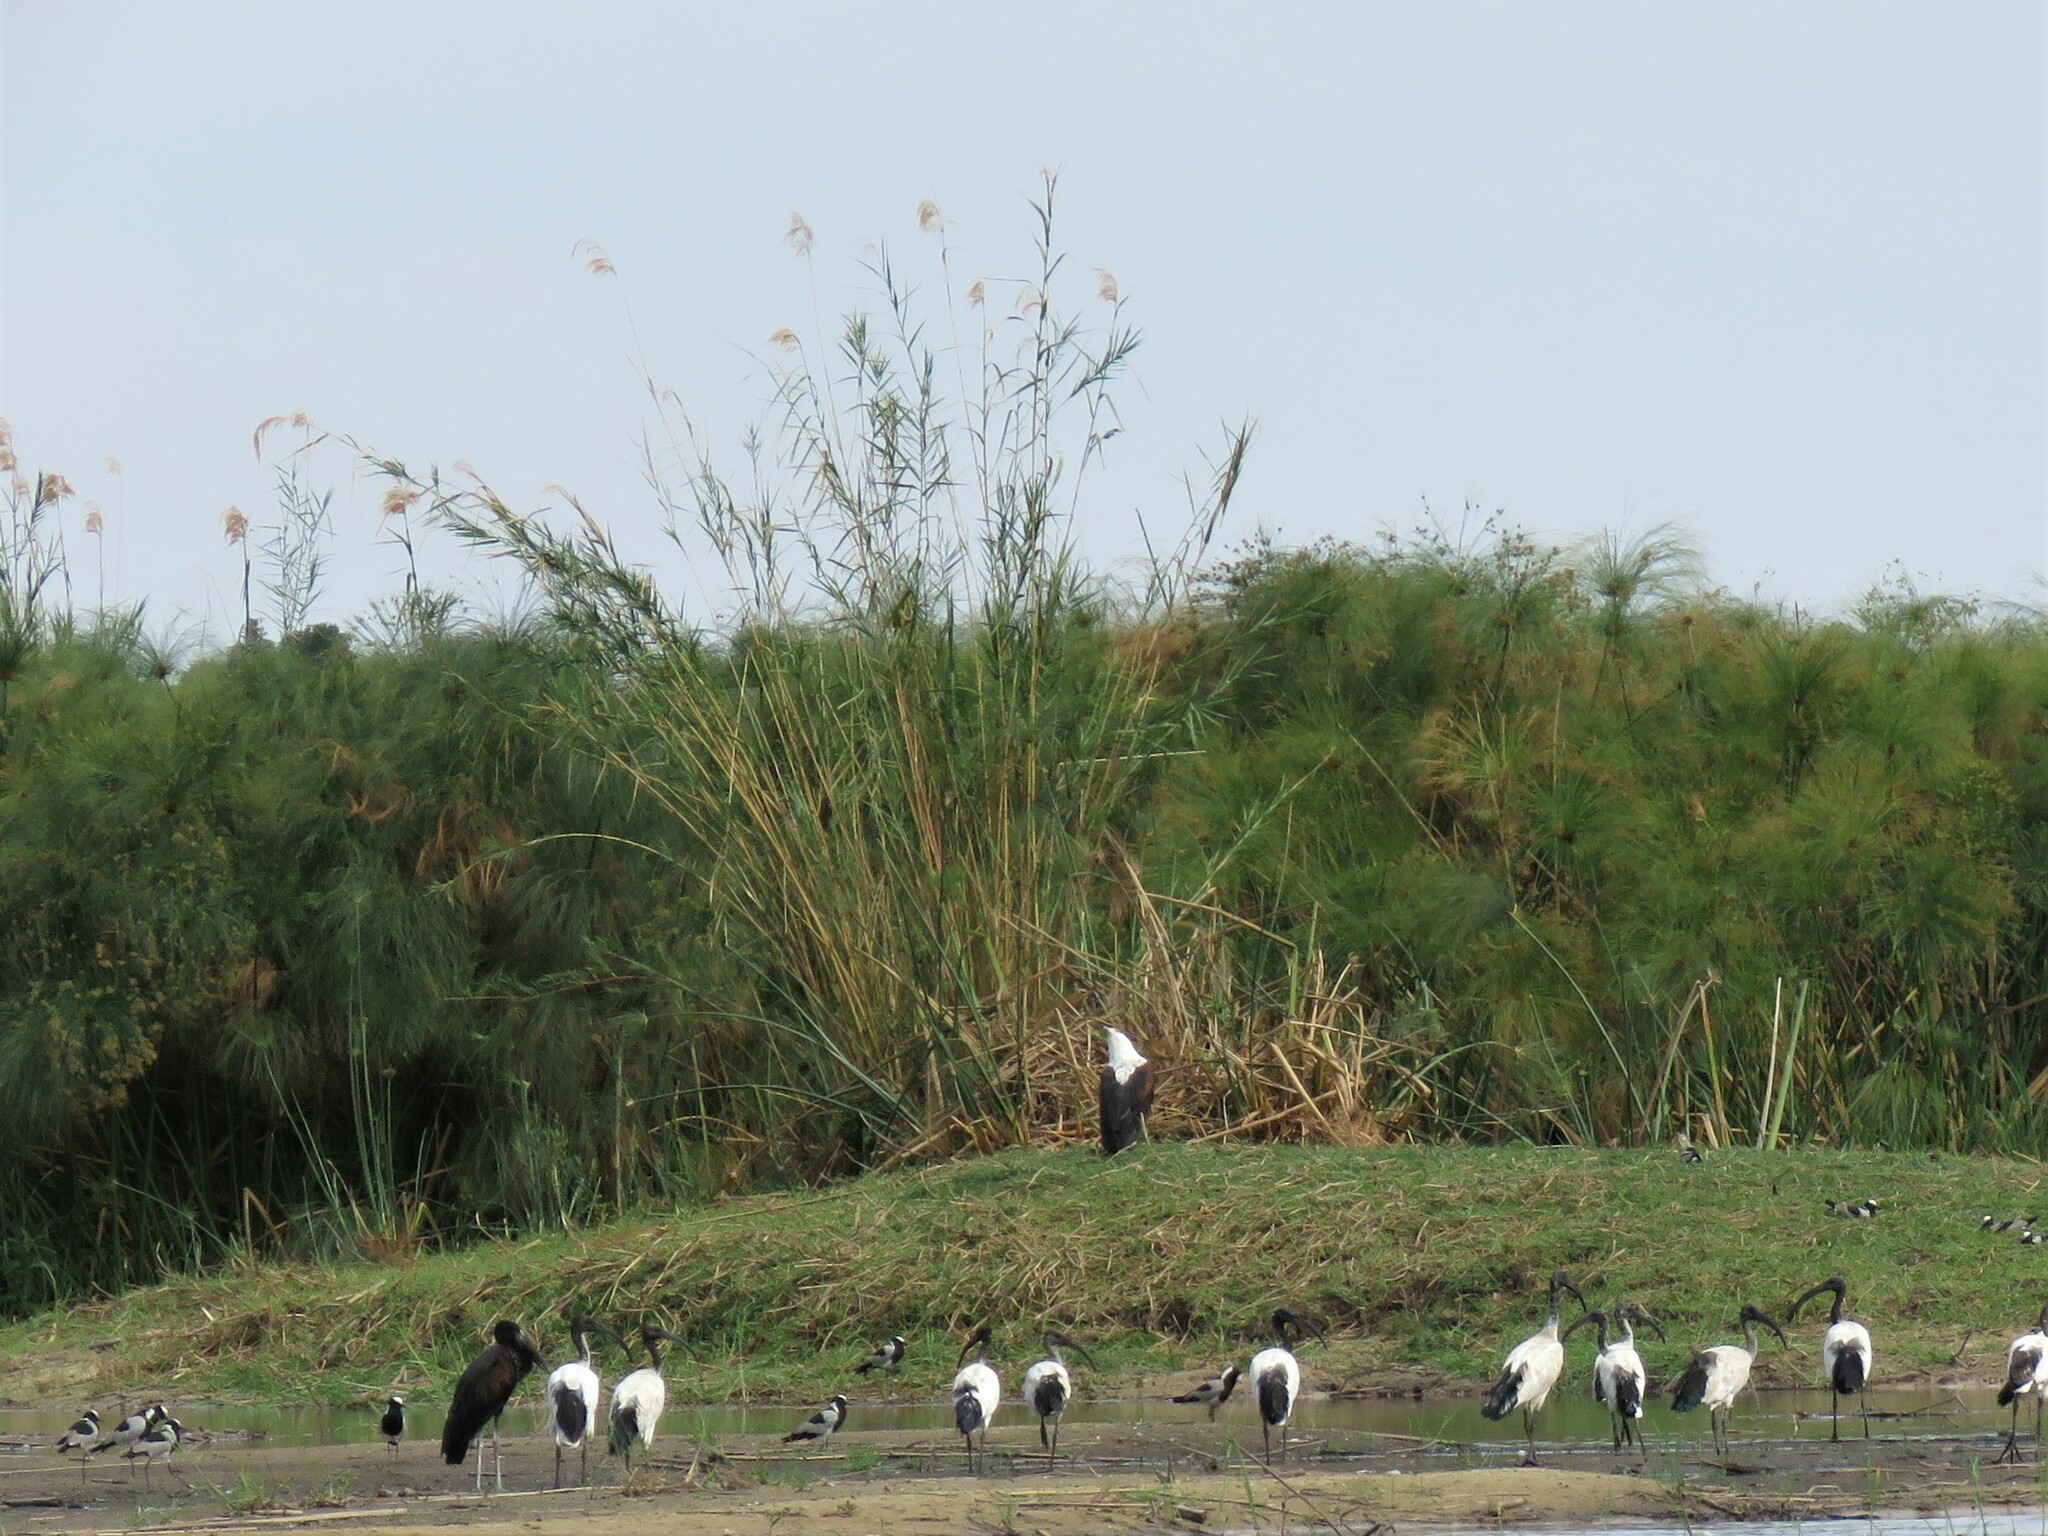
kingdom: Plantae
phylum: Tracheophyta
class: Liliopsida
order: Poales
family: Poaceae
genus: Arundo
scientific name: Arundo donax
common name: Giant reed
